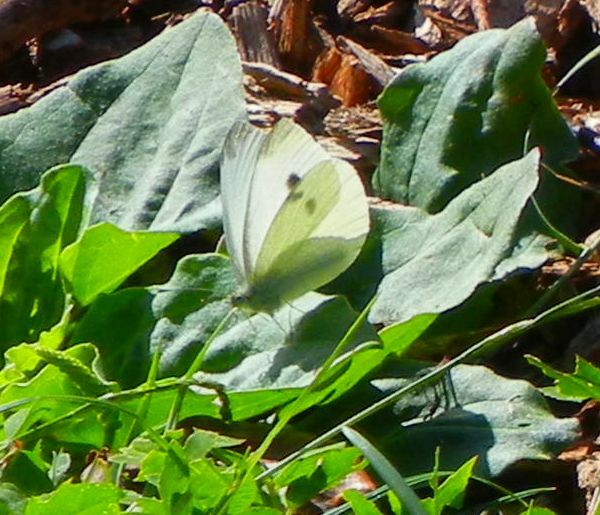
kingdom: Animalia
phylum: Arthropoda
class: Insecta
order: Lepidoptera
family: Pieridae
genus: Pieris
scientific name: Pieris rapae
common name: Small white
